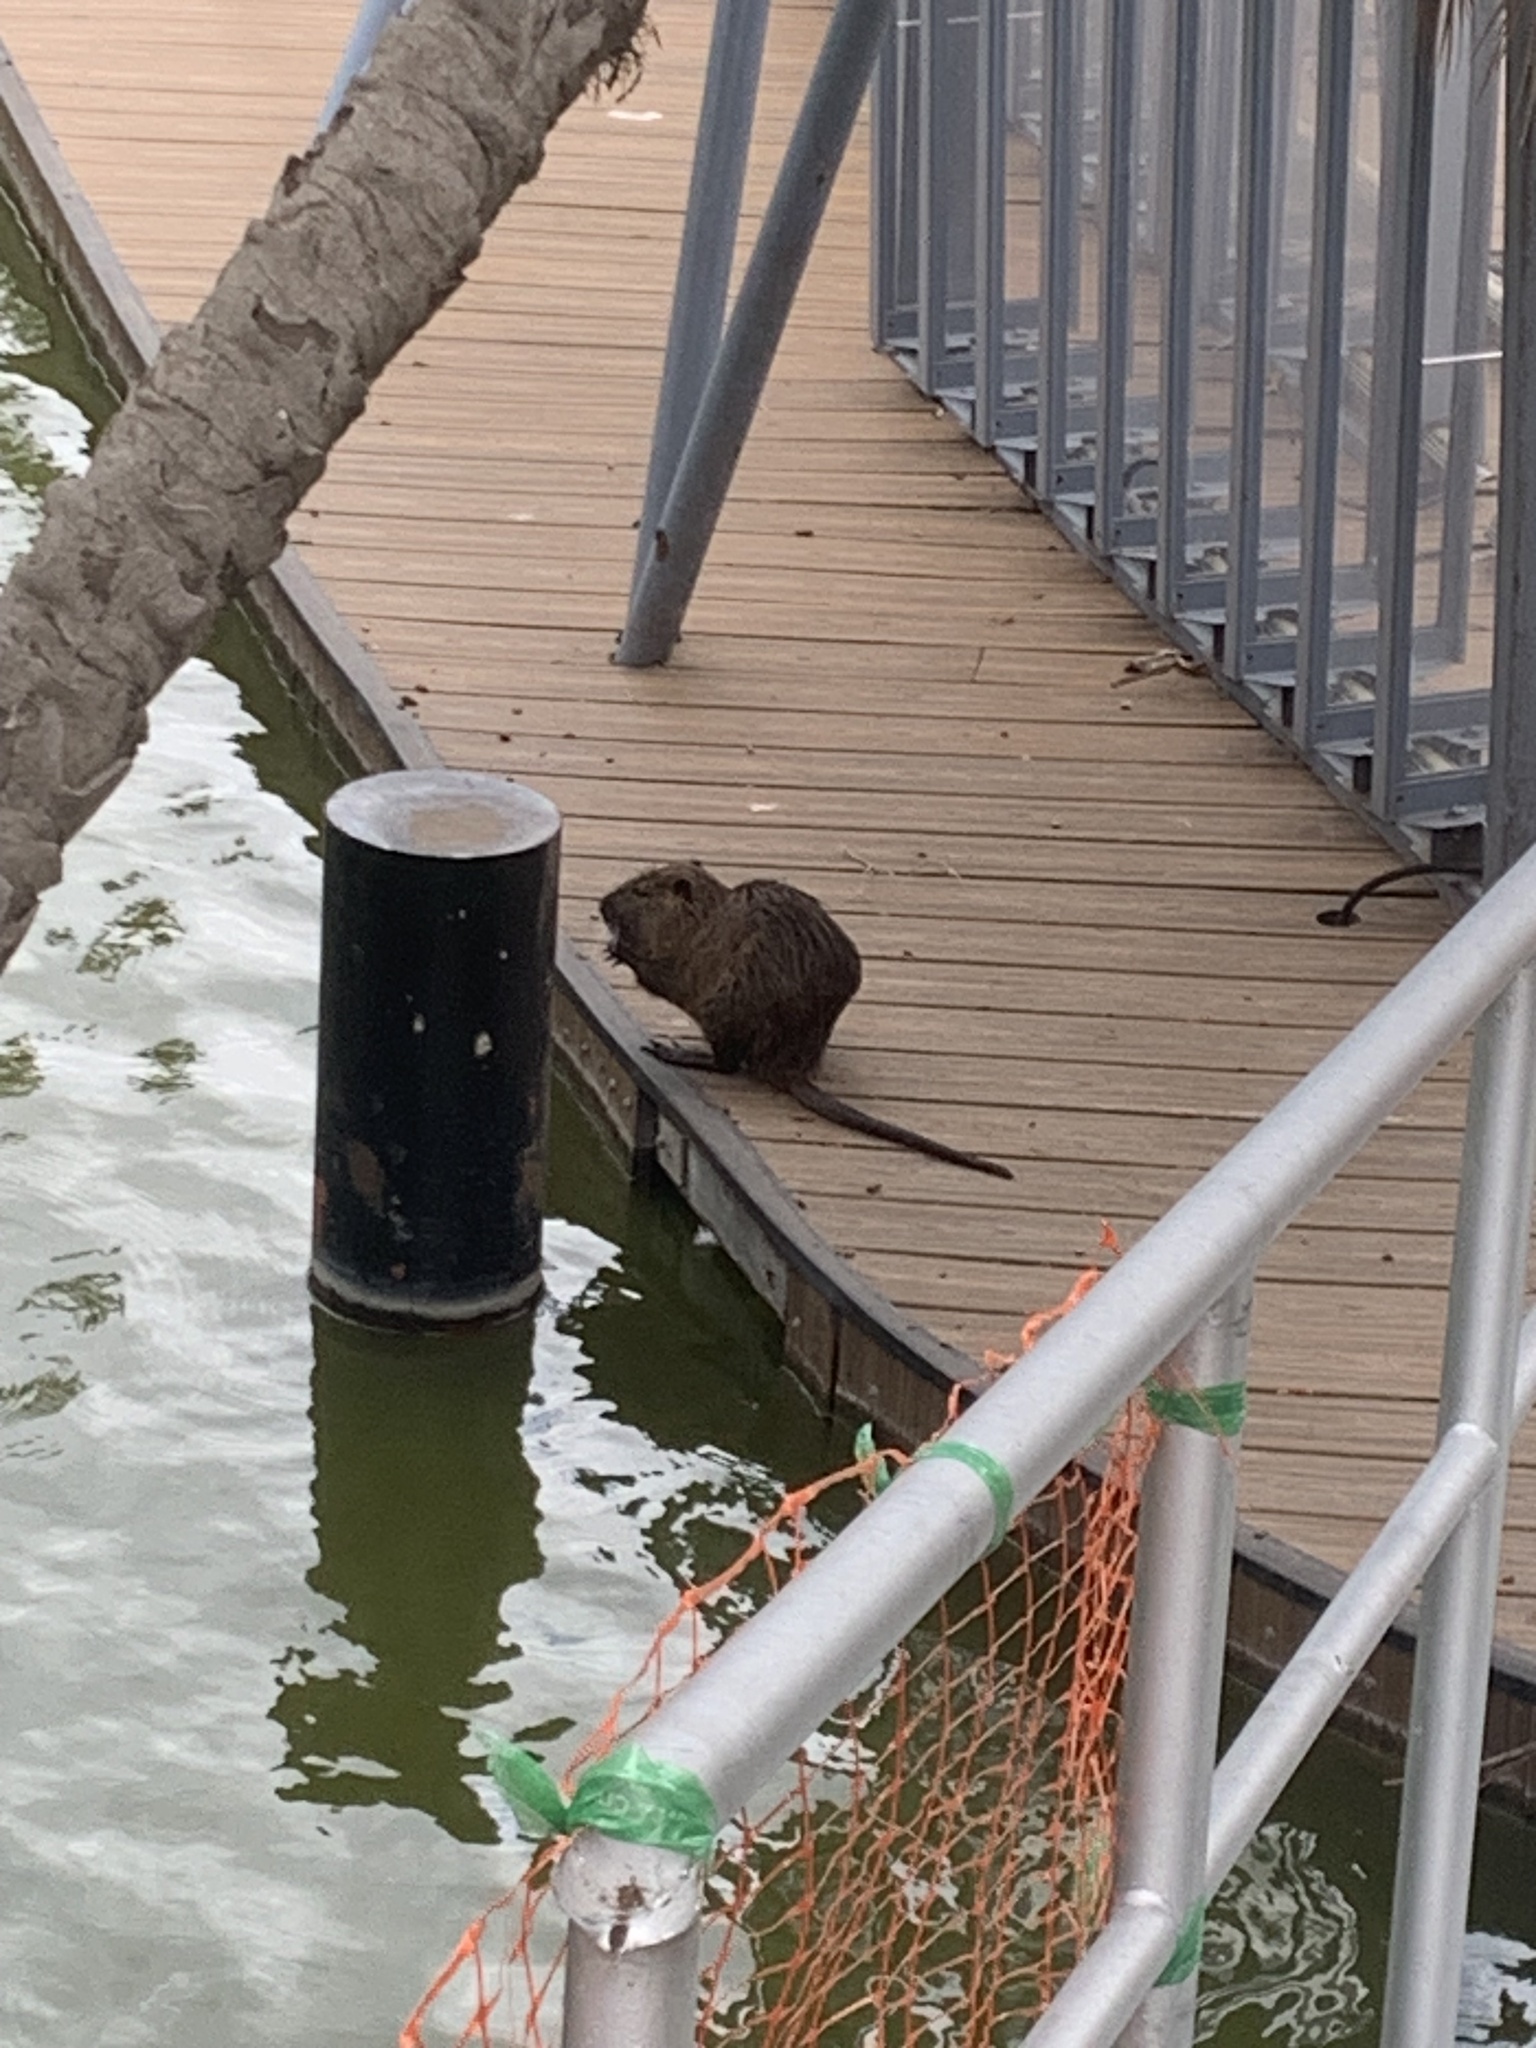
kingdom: Animalia
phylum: Chordata
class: Mammalia
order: Rodentia
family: Myocastoridae
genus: Myocastor
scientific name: Myocastor coypus
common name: Coypu
